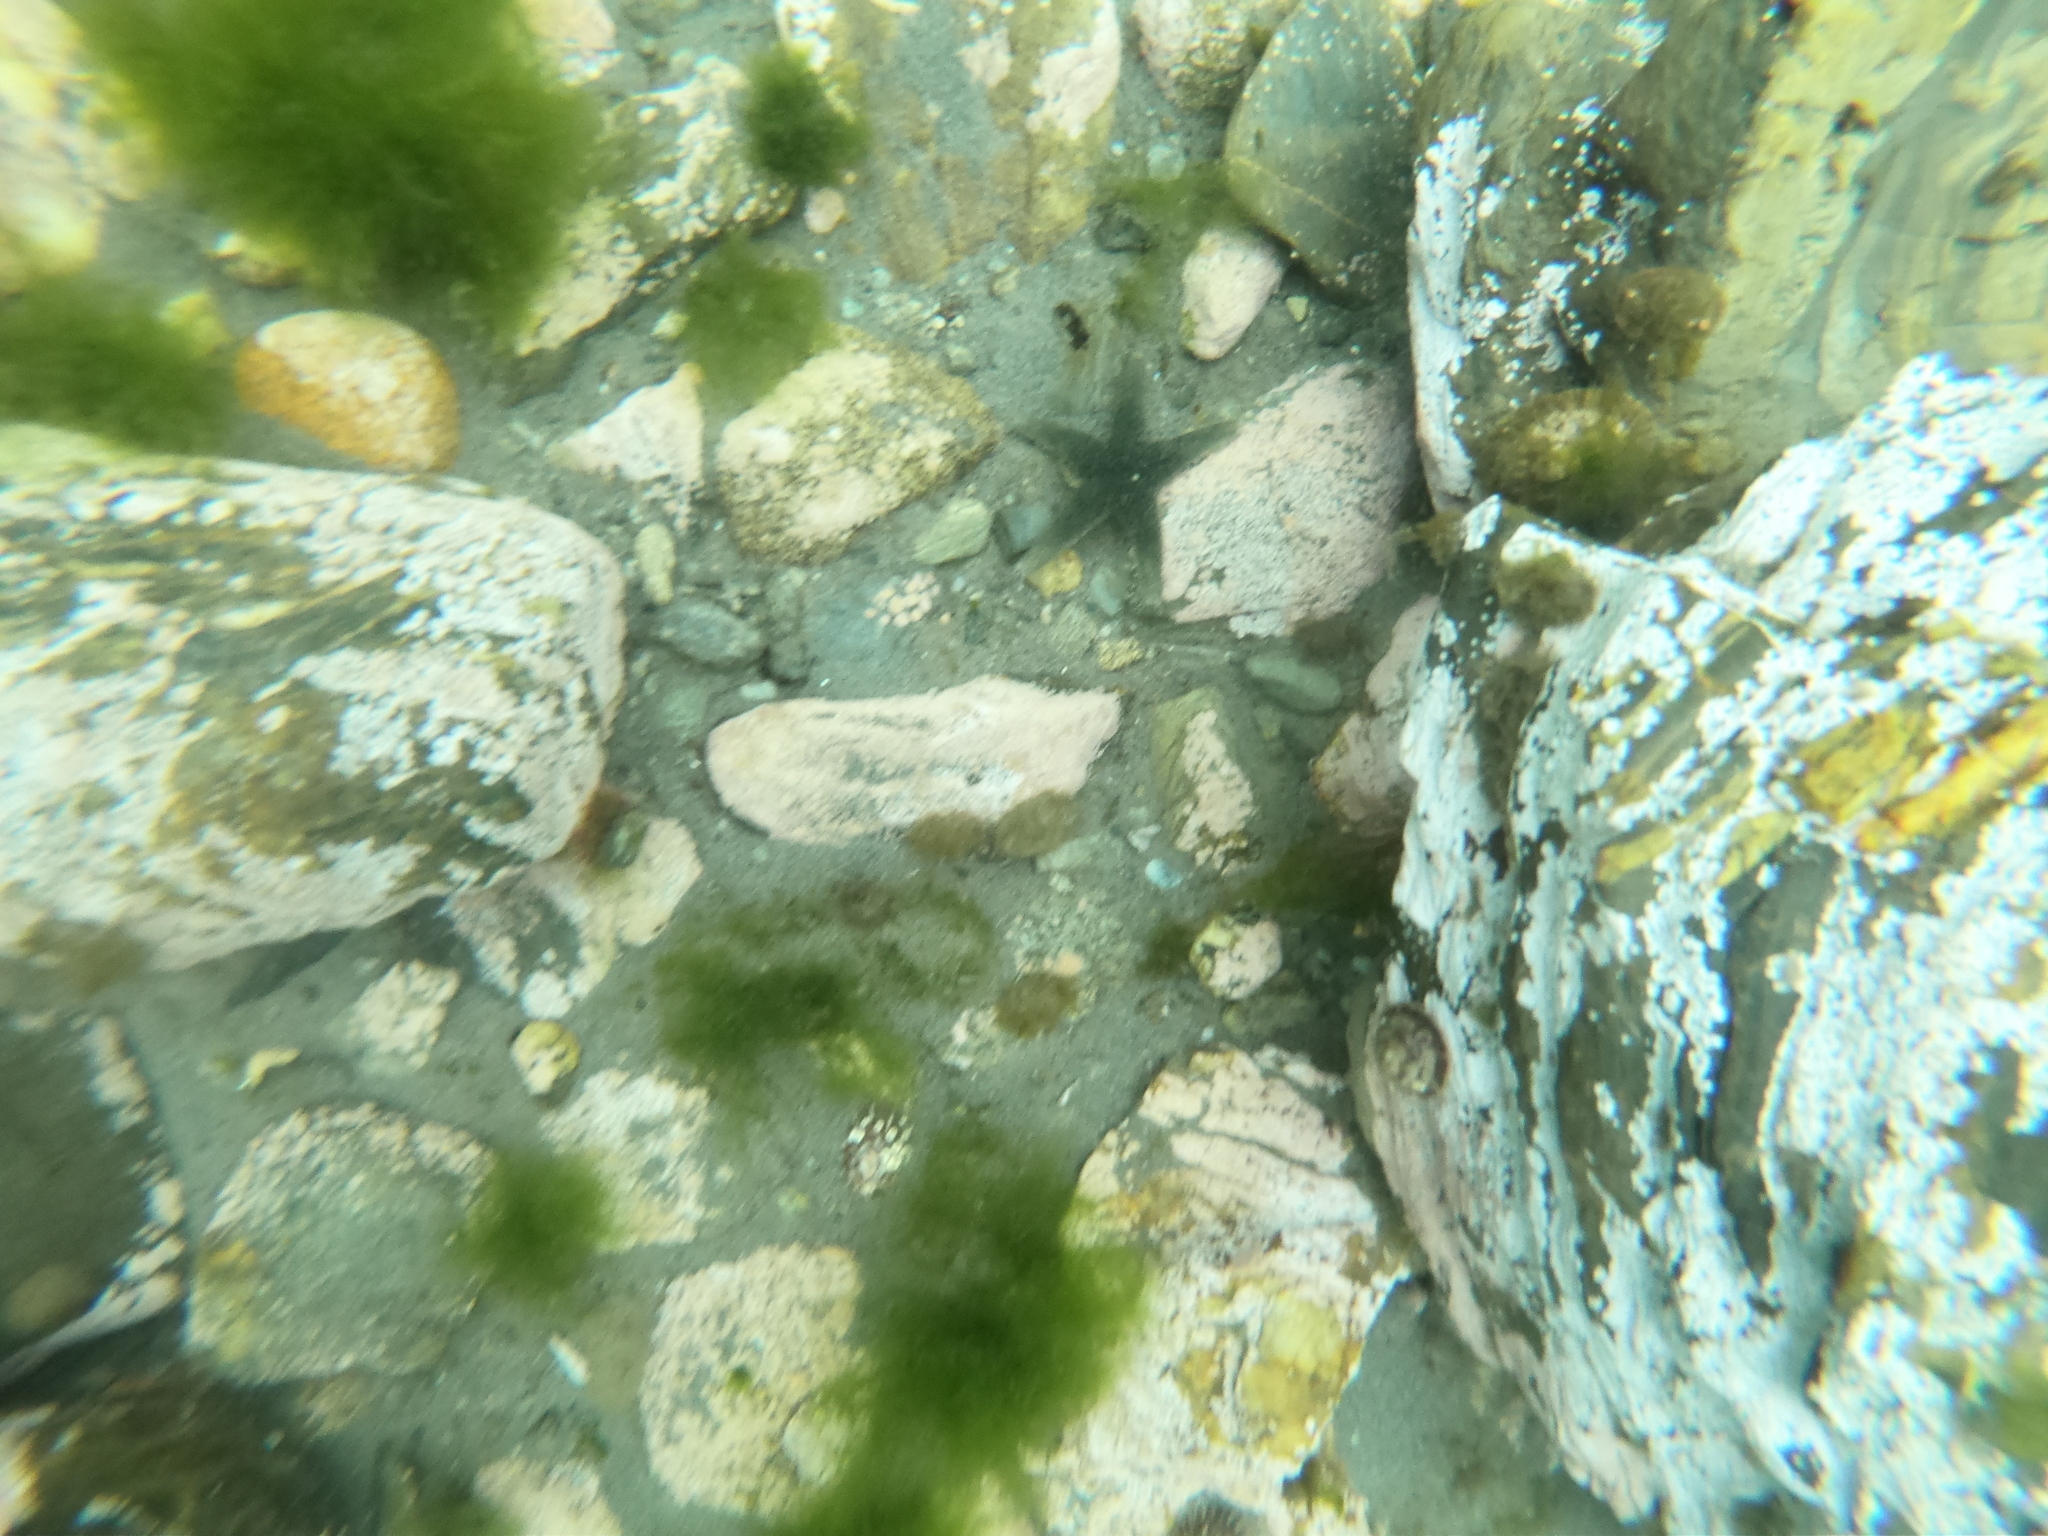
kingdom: Animalia
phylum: Echinodermata
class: Asteroidea
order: Forcipulatida
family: Asteriidae
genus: Anasterias
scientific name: Anasterias antarctica
